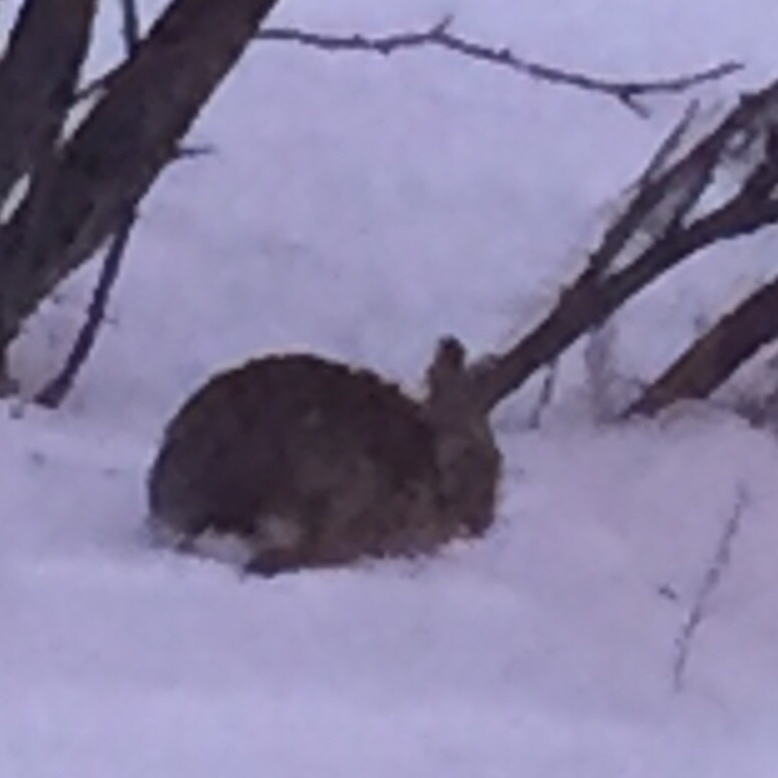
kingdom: Animalia
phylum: Chordata
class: Mammalia
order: Lagomorpha
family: Leporidae
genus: Sylvilagus
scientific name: Sylvilagus floridanus
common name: Eastern cottontail
